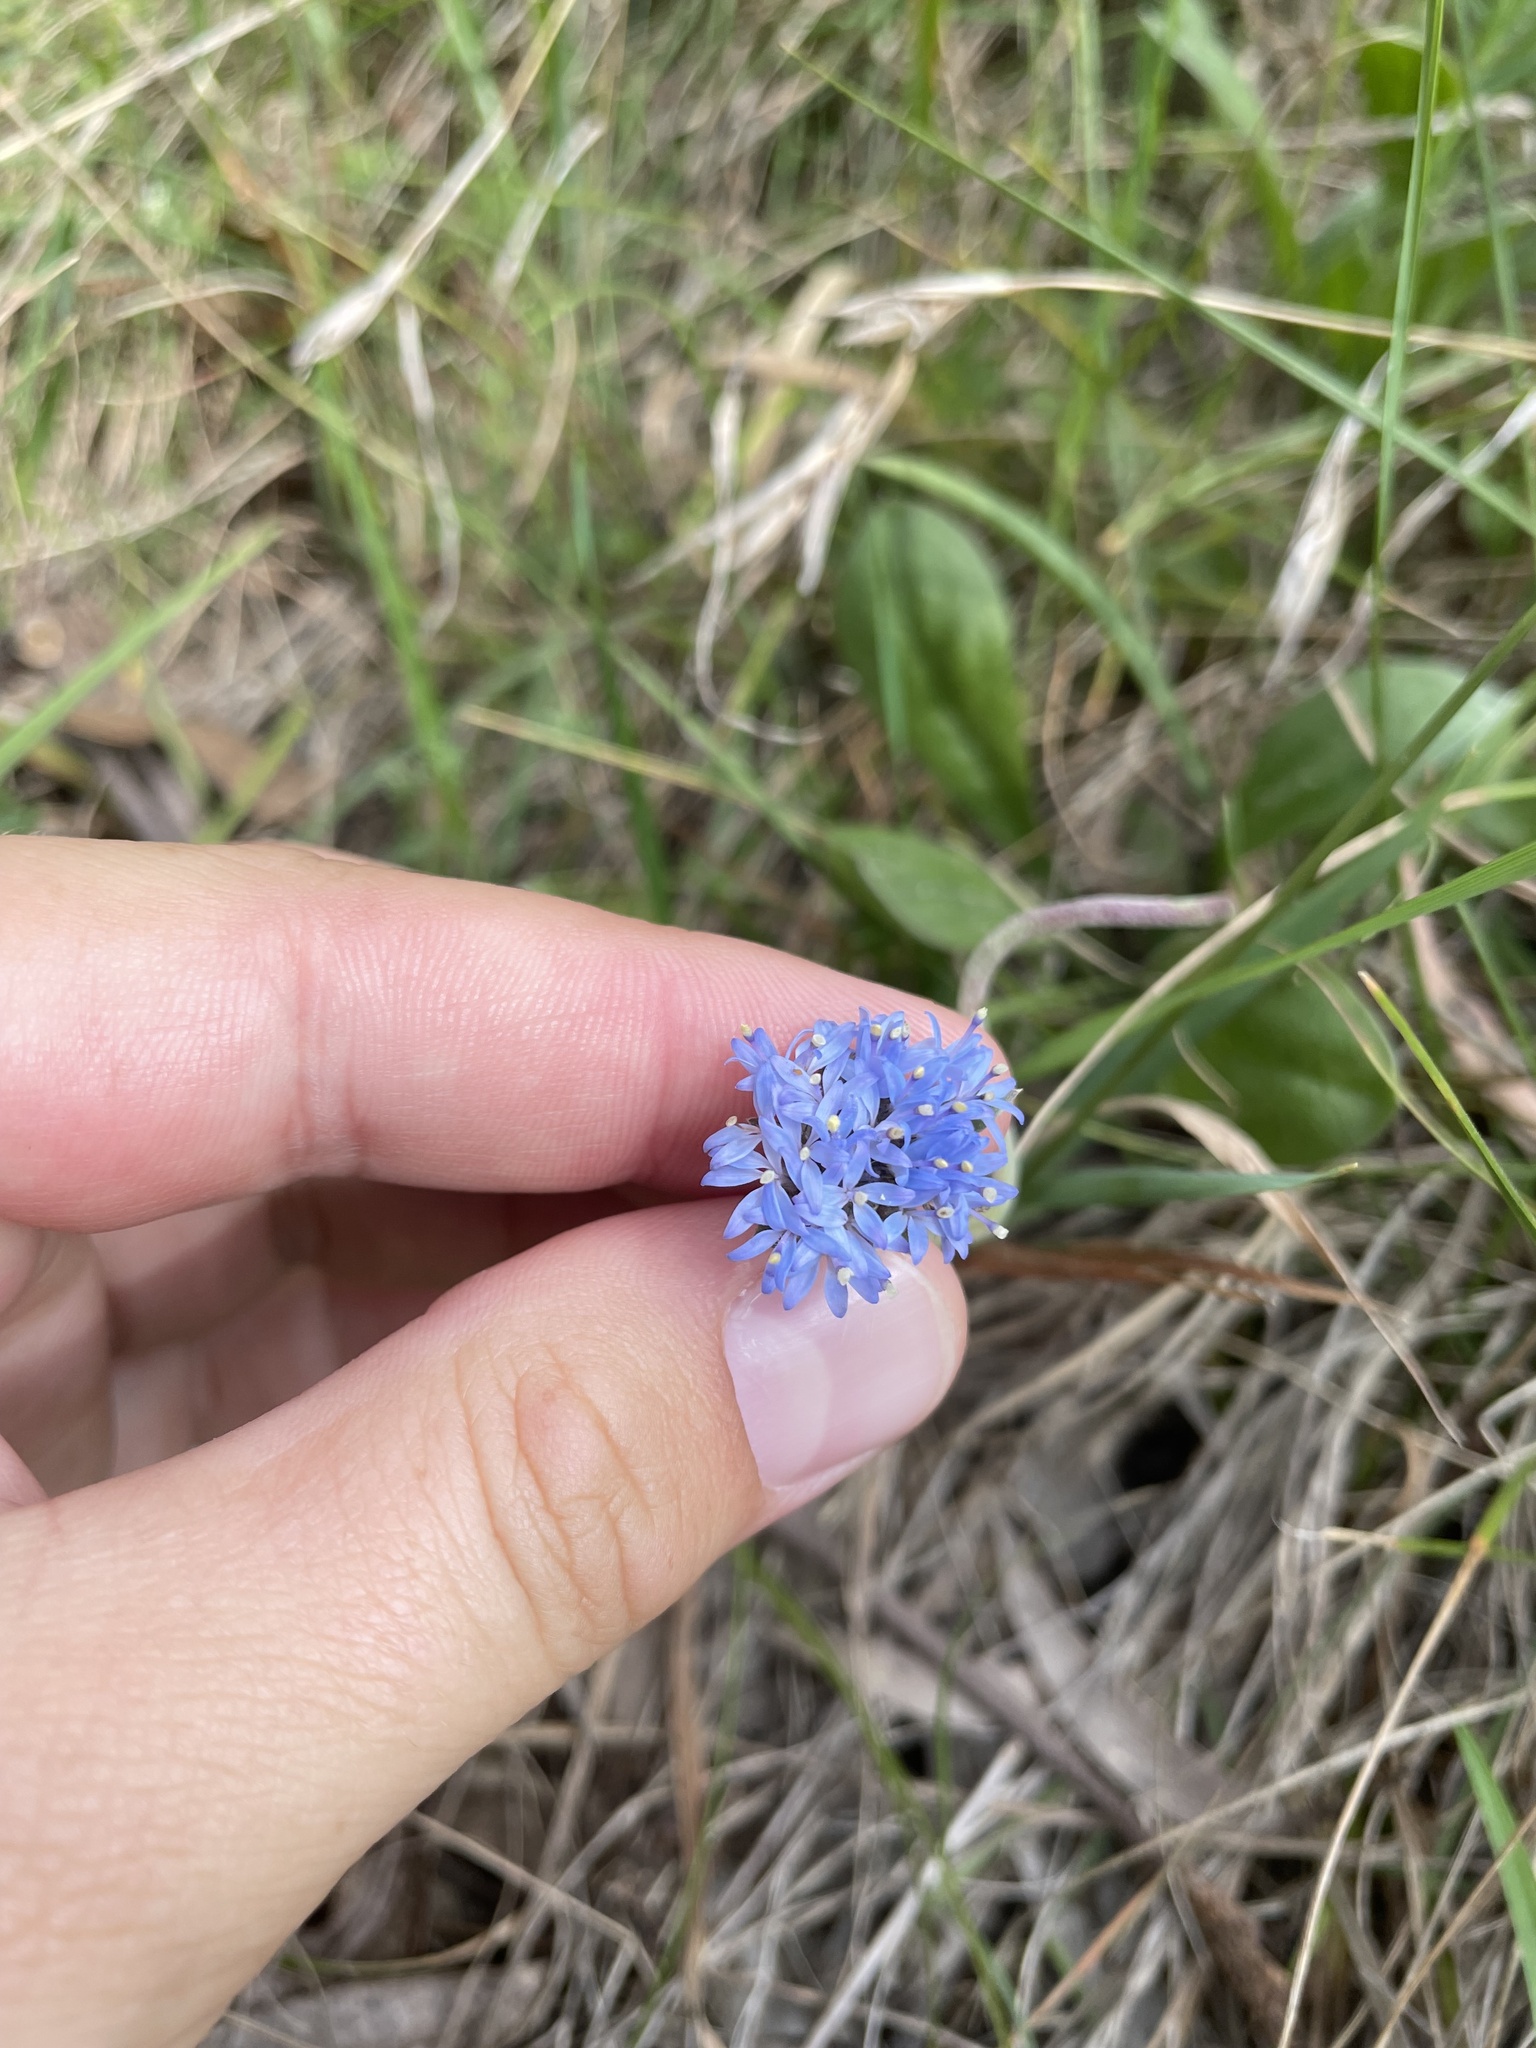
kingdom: Plantae
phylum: Tracheophyta
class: Magnoliopsida
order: Asterales
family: Goodeniaceae
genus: Brunonia
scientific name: Brunonia australis
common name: Blue pincushion
